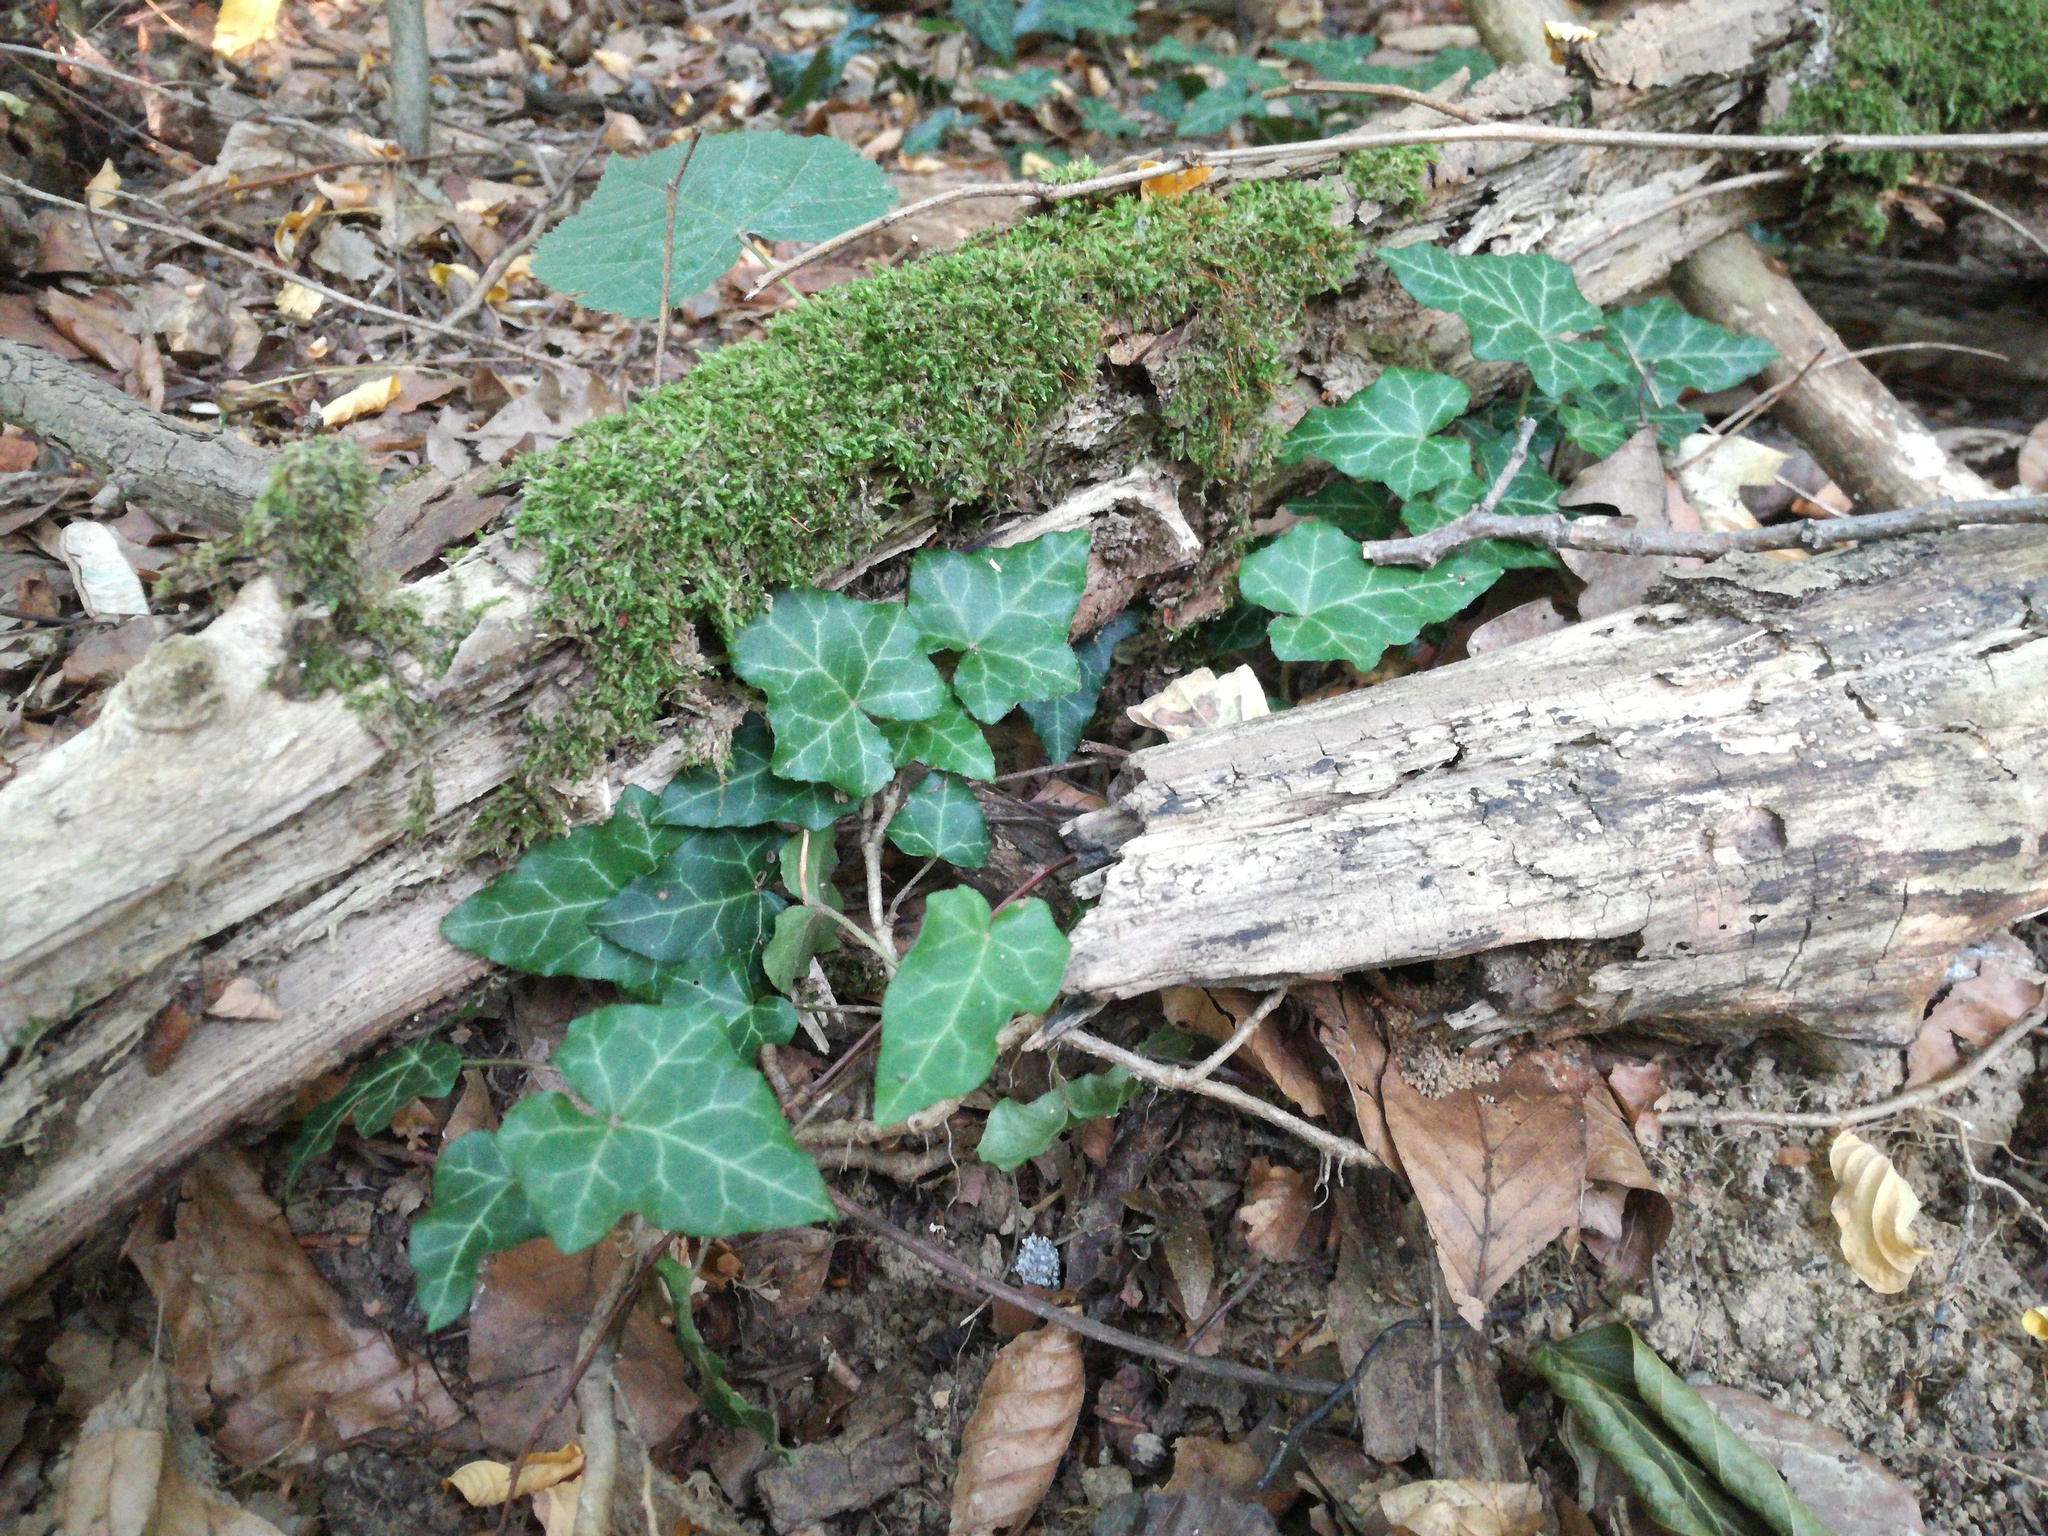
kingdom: Plantae
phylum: Tracheophyta
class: Magnoliopsida
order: Apiales
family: Araliaceae
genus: Hedera
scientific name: Hedera helix
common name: Ivy
